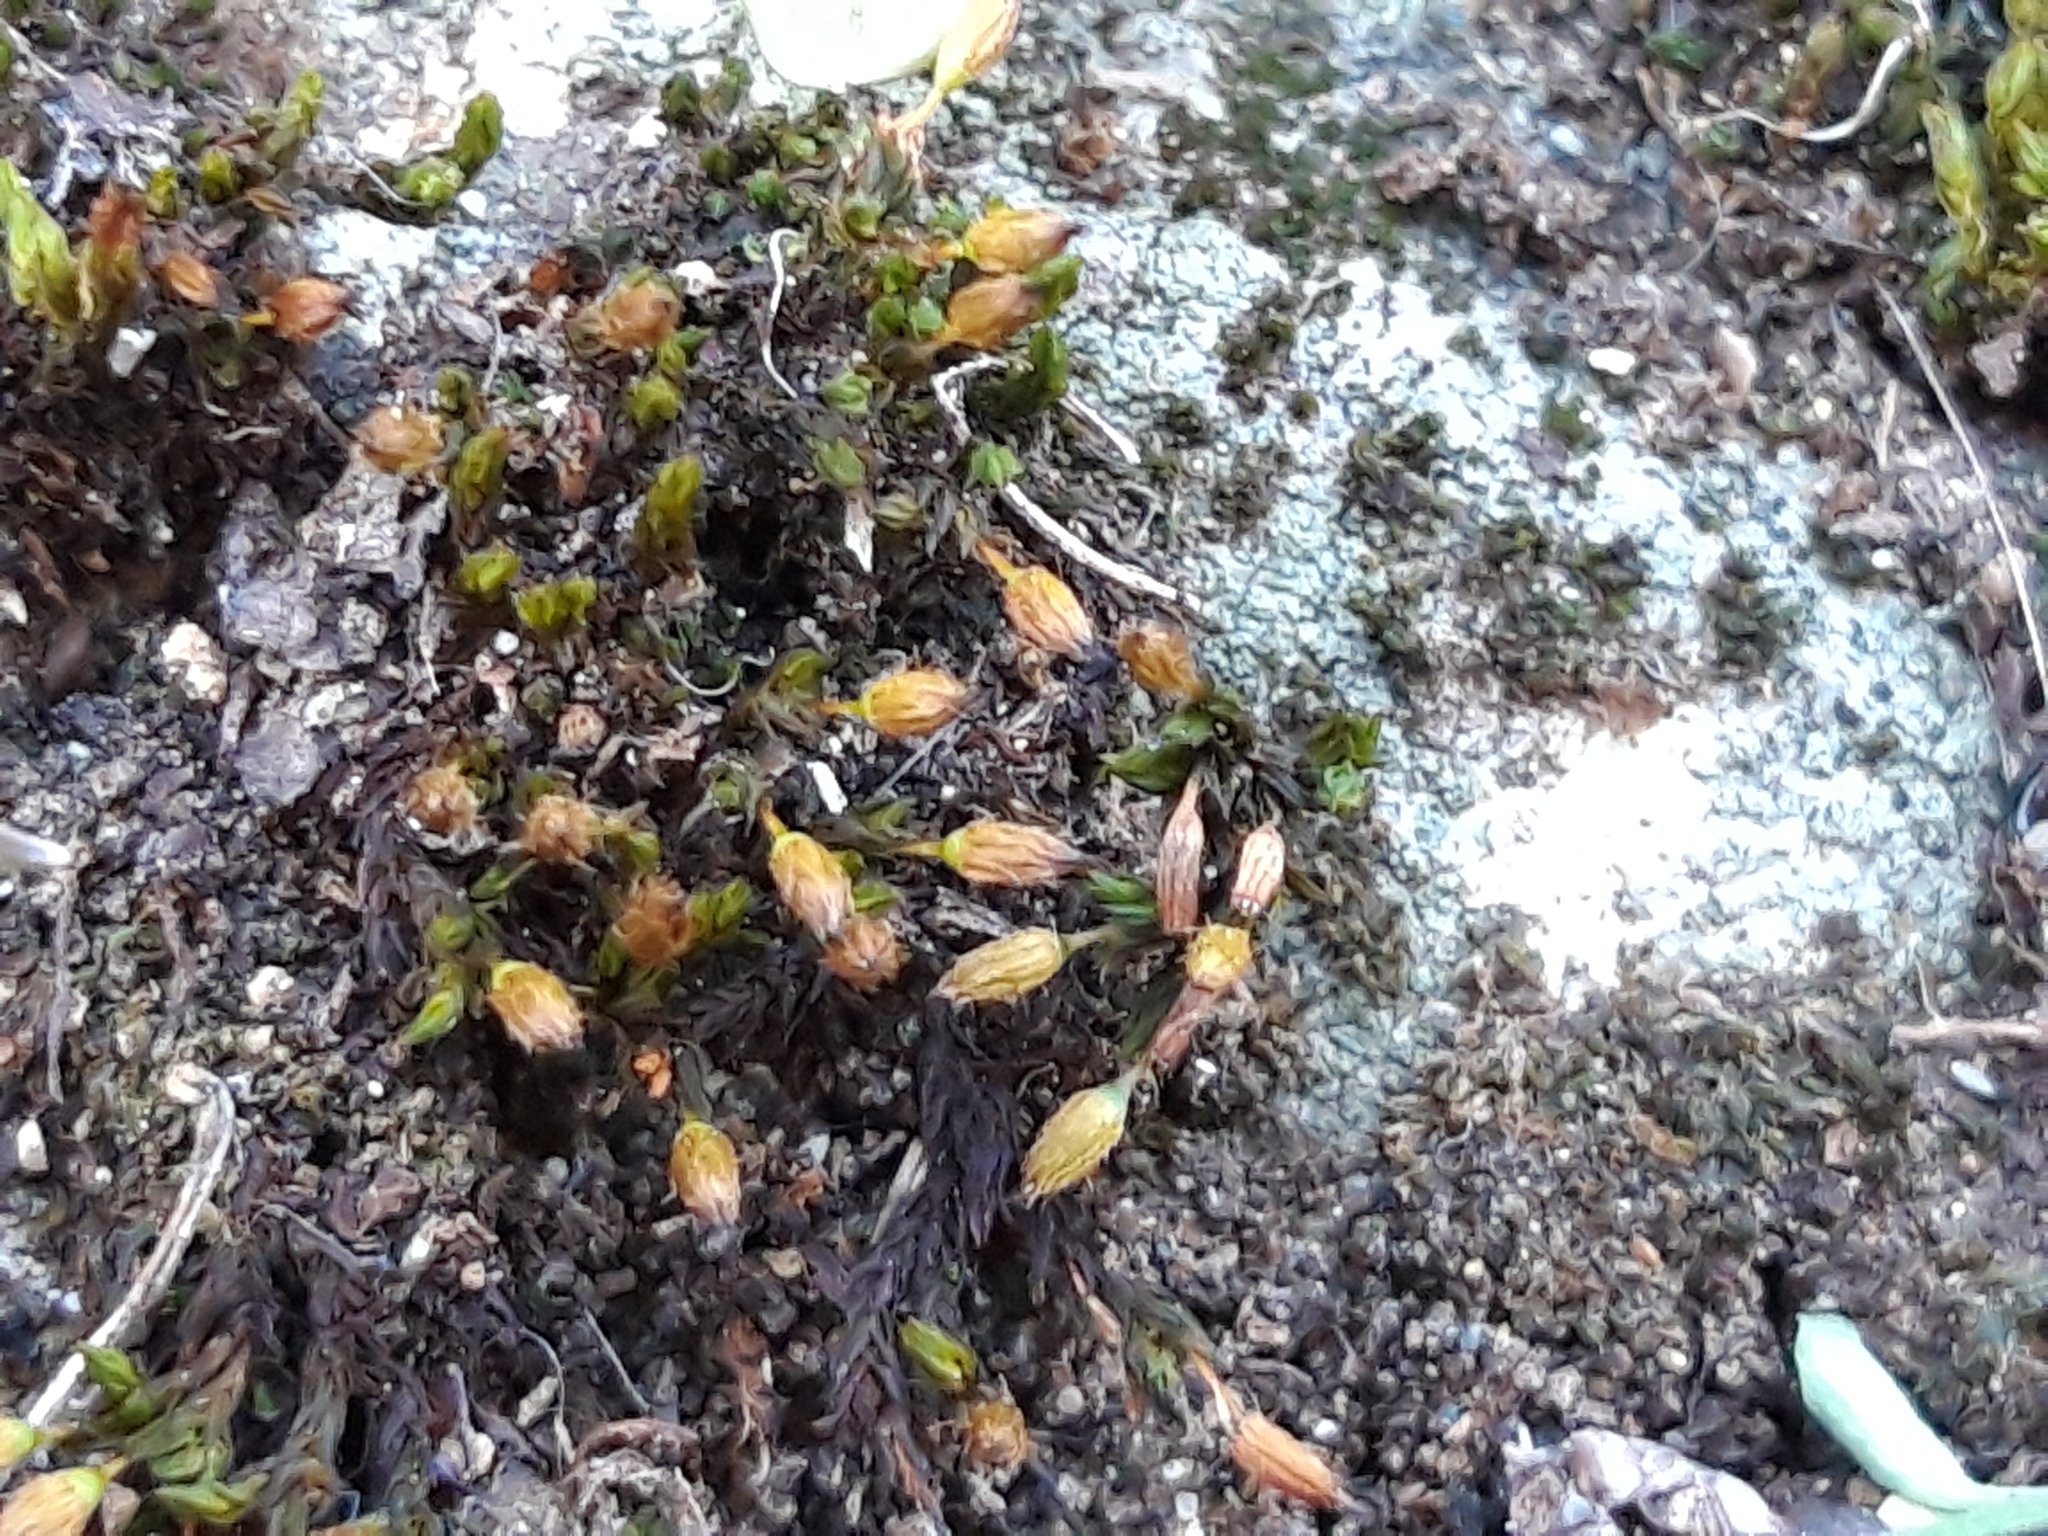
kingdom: Plantae
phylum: Bryophyta
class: Bryopsida
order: Orthotrichales
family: Orthotrichaceae
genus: Orthotrichum
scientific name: Orthotrichum anomalum
